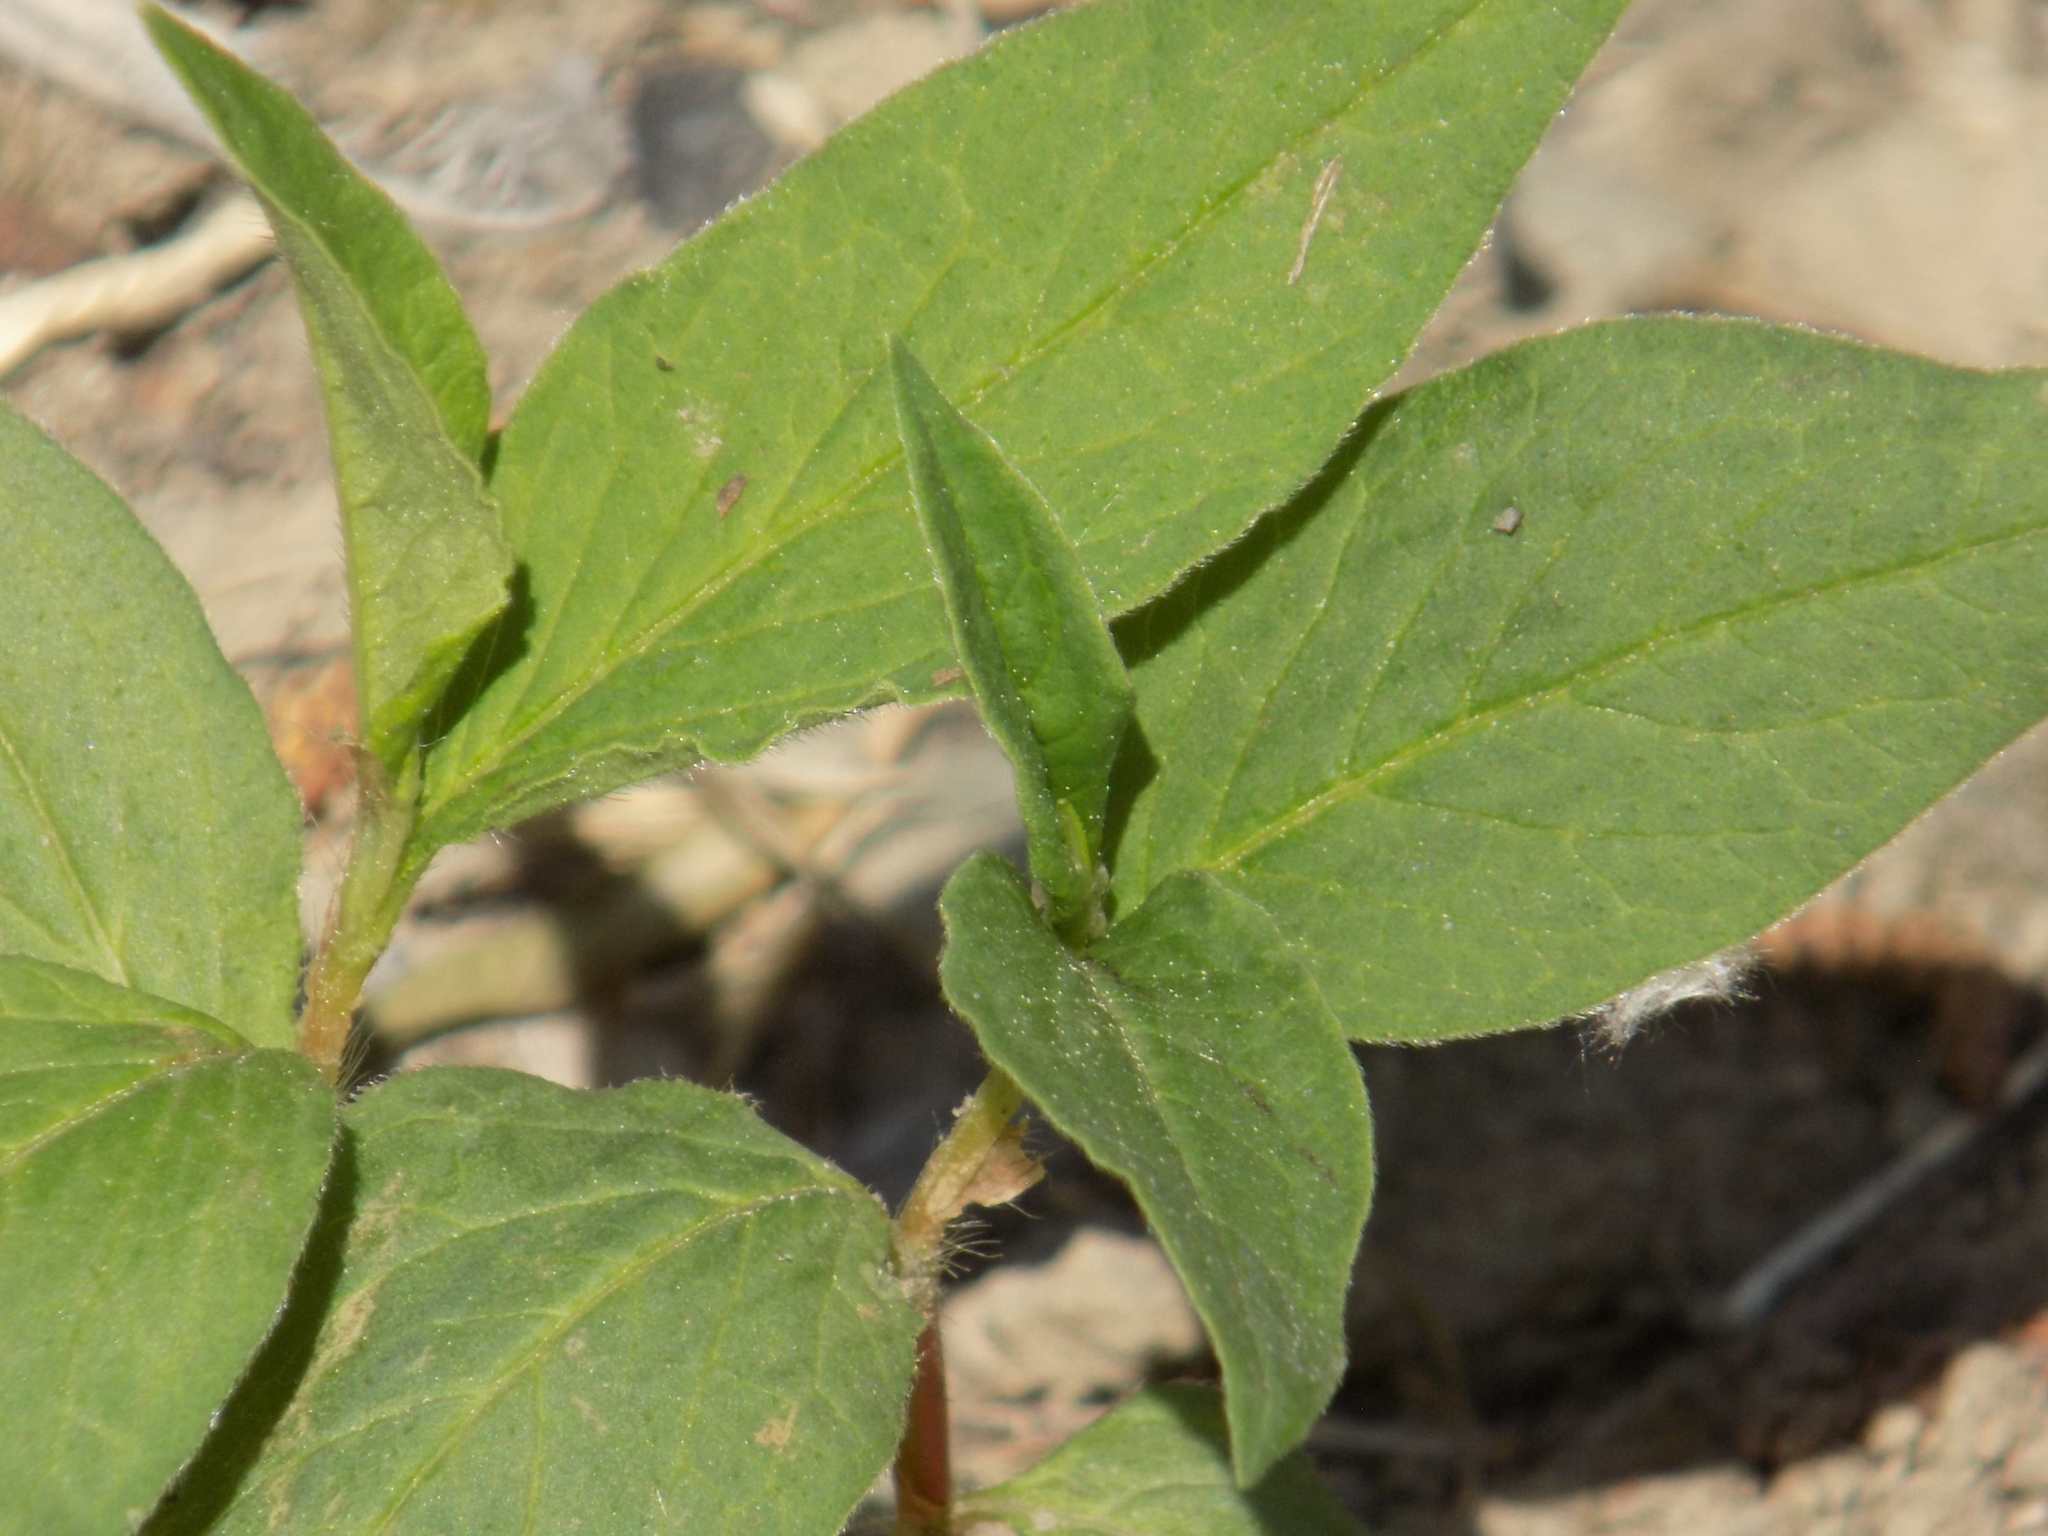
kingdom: Plantae
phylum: Tracheophyta
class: Magnoliopsida
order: Caryophyllales
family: Polygonaceae
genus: Koenigia
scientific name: Koenigia alpina
